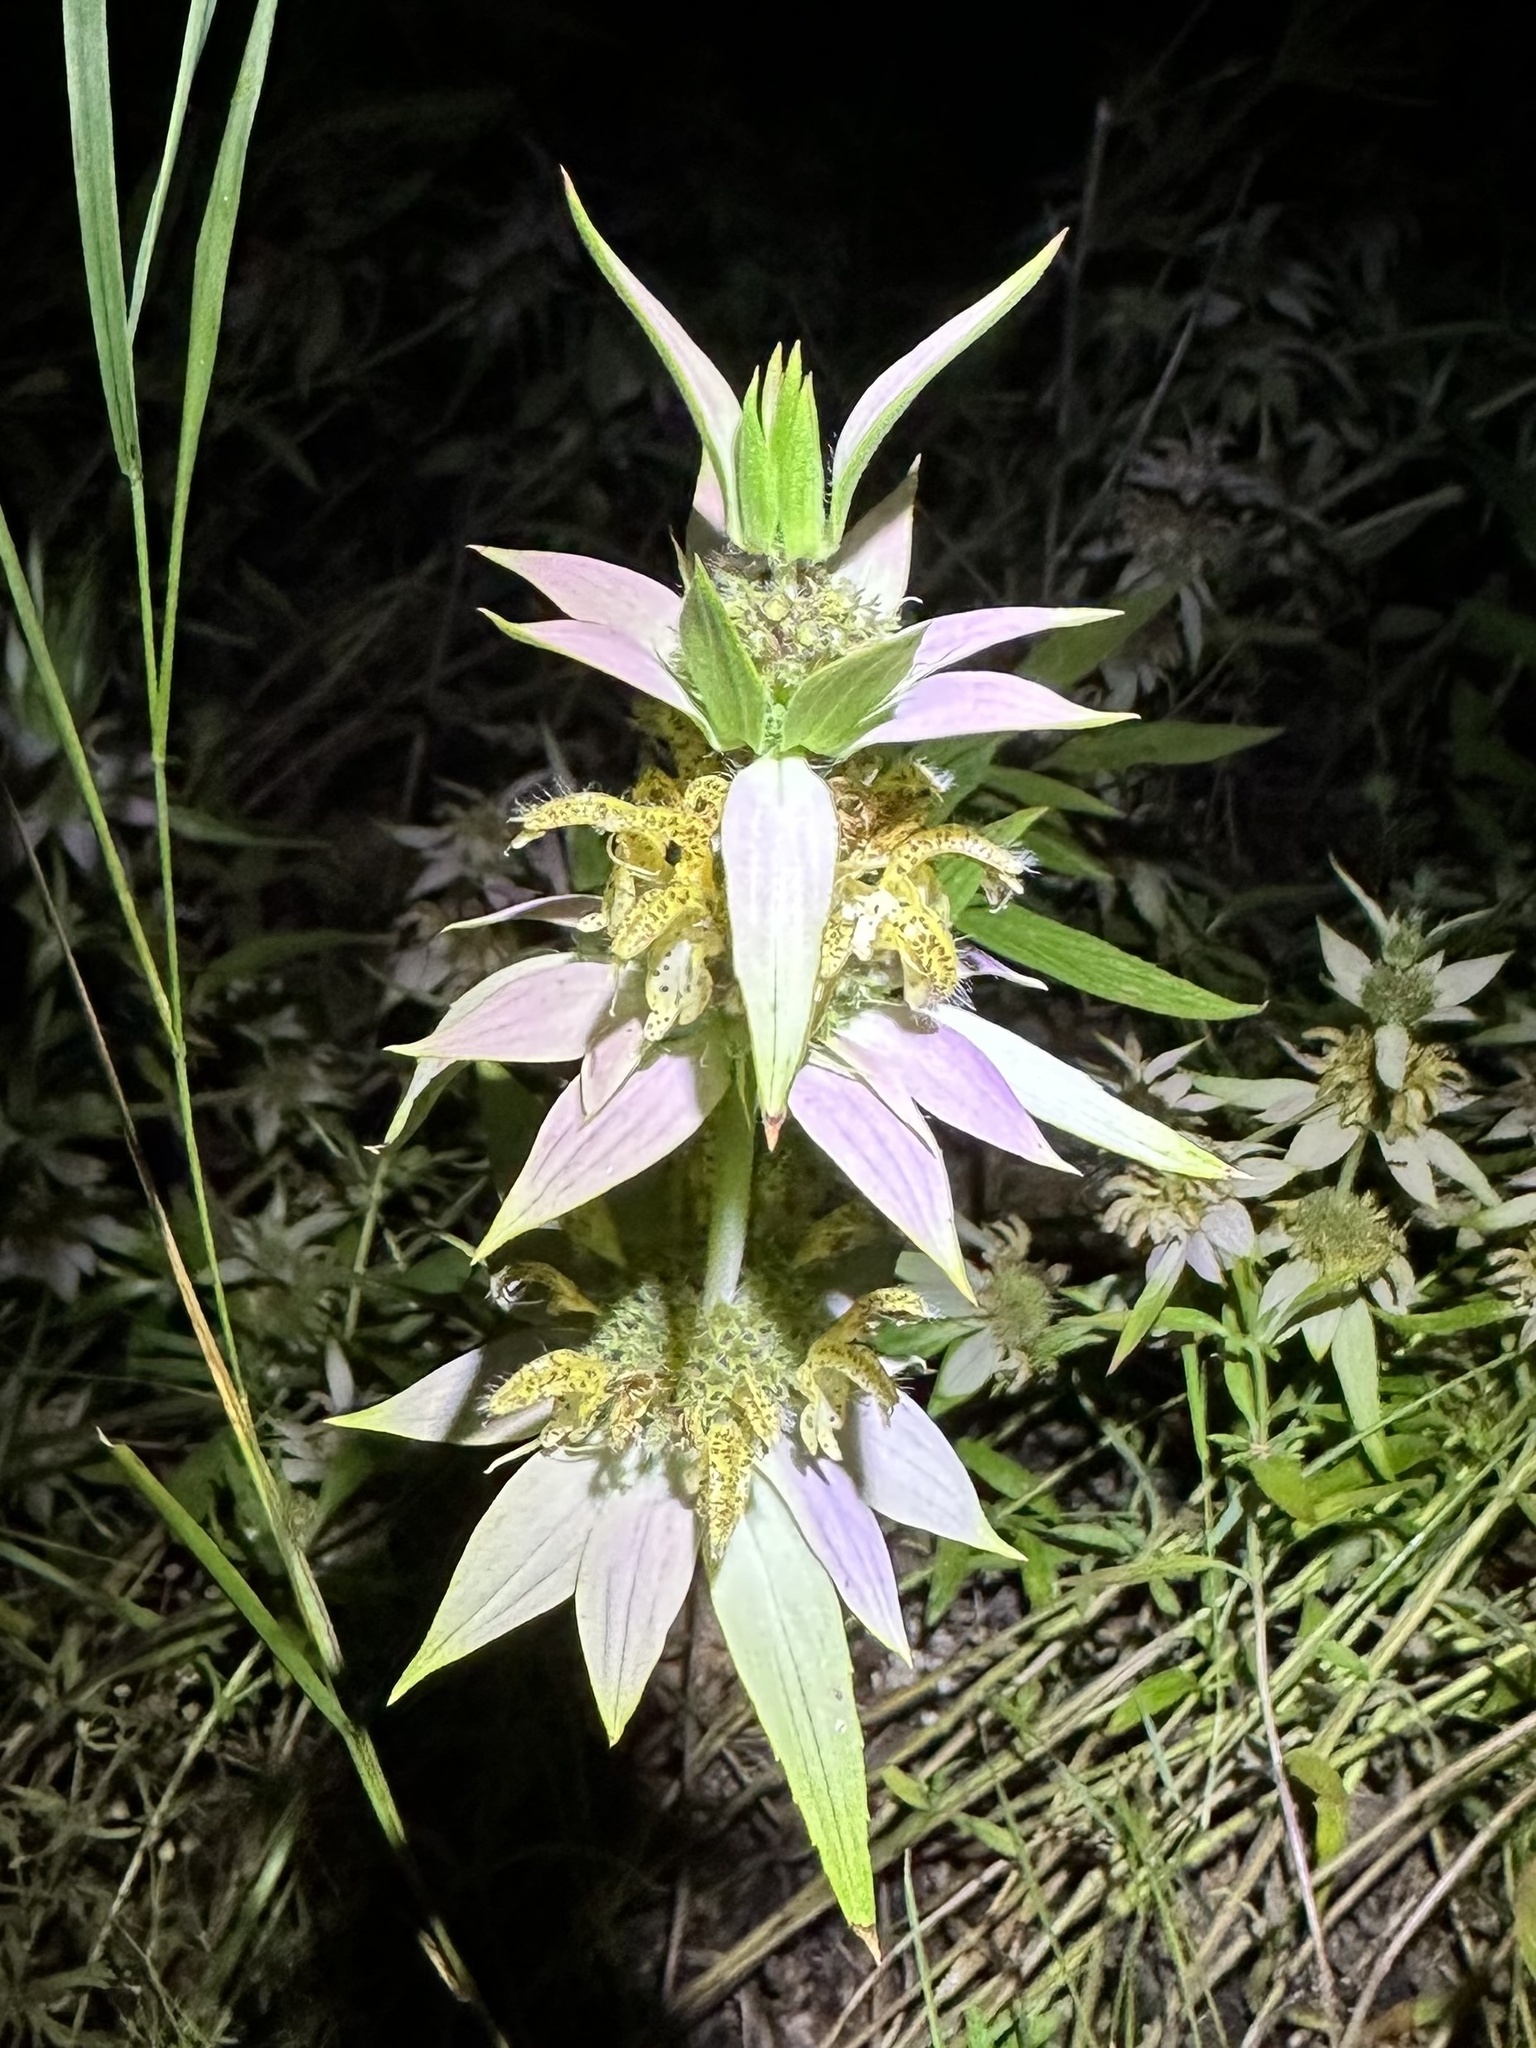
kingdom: Plantae
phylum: Tracheophyta
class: Magnoliopsida
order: Lamiales
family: Lamiaceae
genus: Monarda
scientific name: Monarda punctata
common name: Dotted monarda
